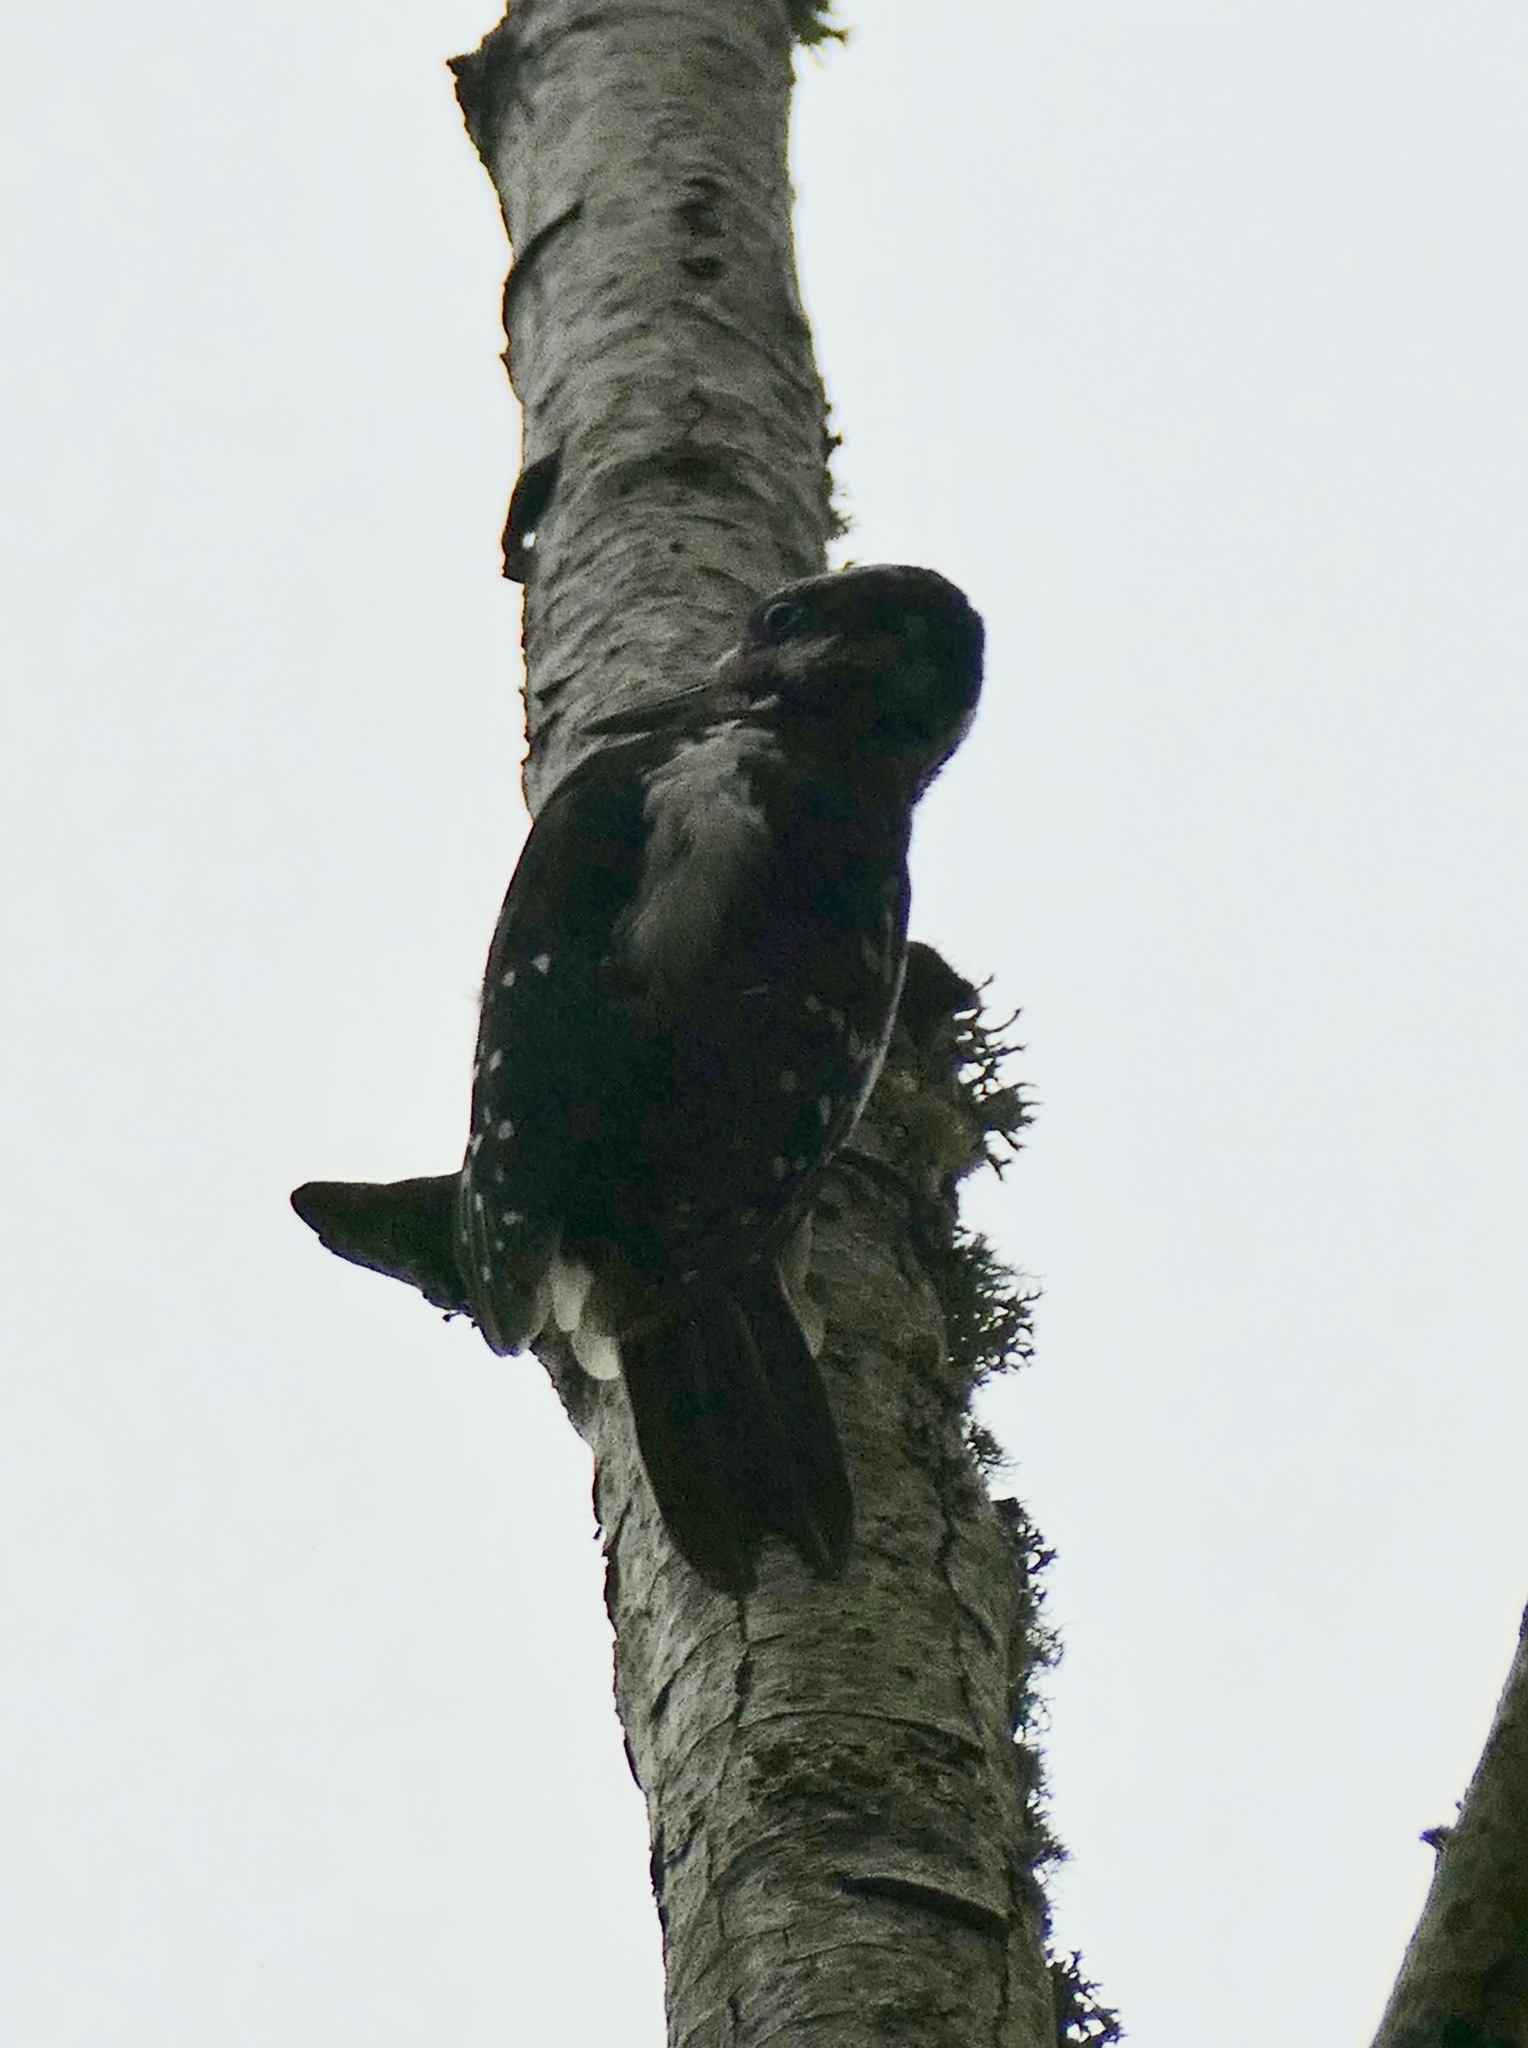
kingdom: Animalia
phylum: Chordata
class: Aves
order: Piciformes
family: Picidae
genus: Leuconotopicus
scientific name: Leuconotopicus villosus
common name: Hairy woodpecker
